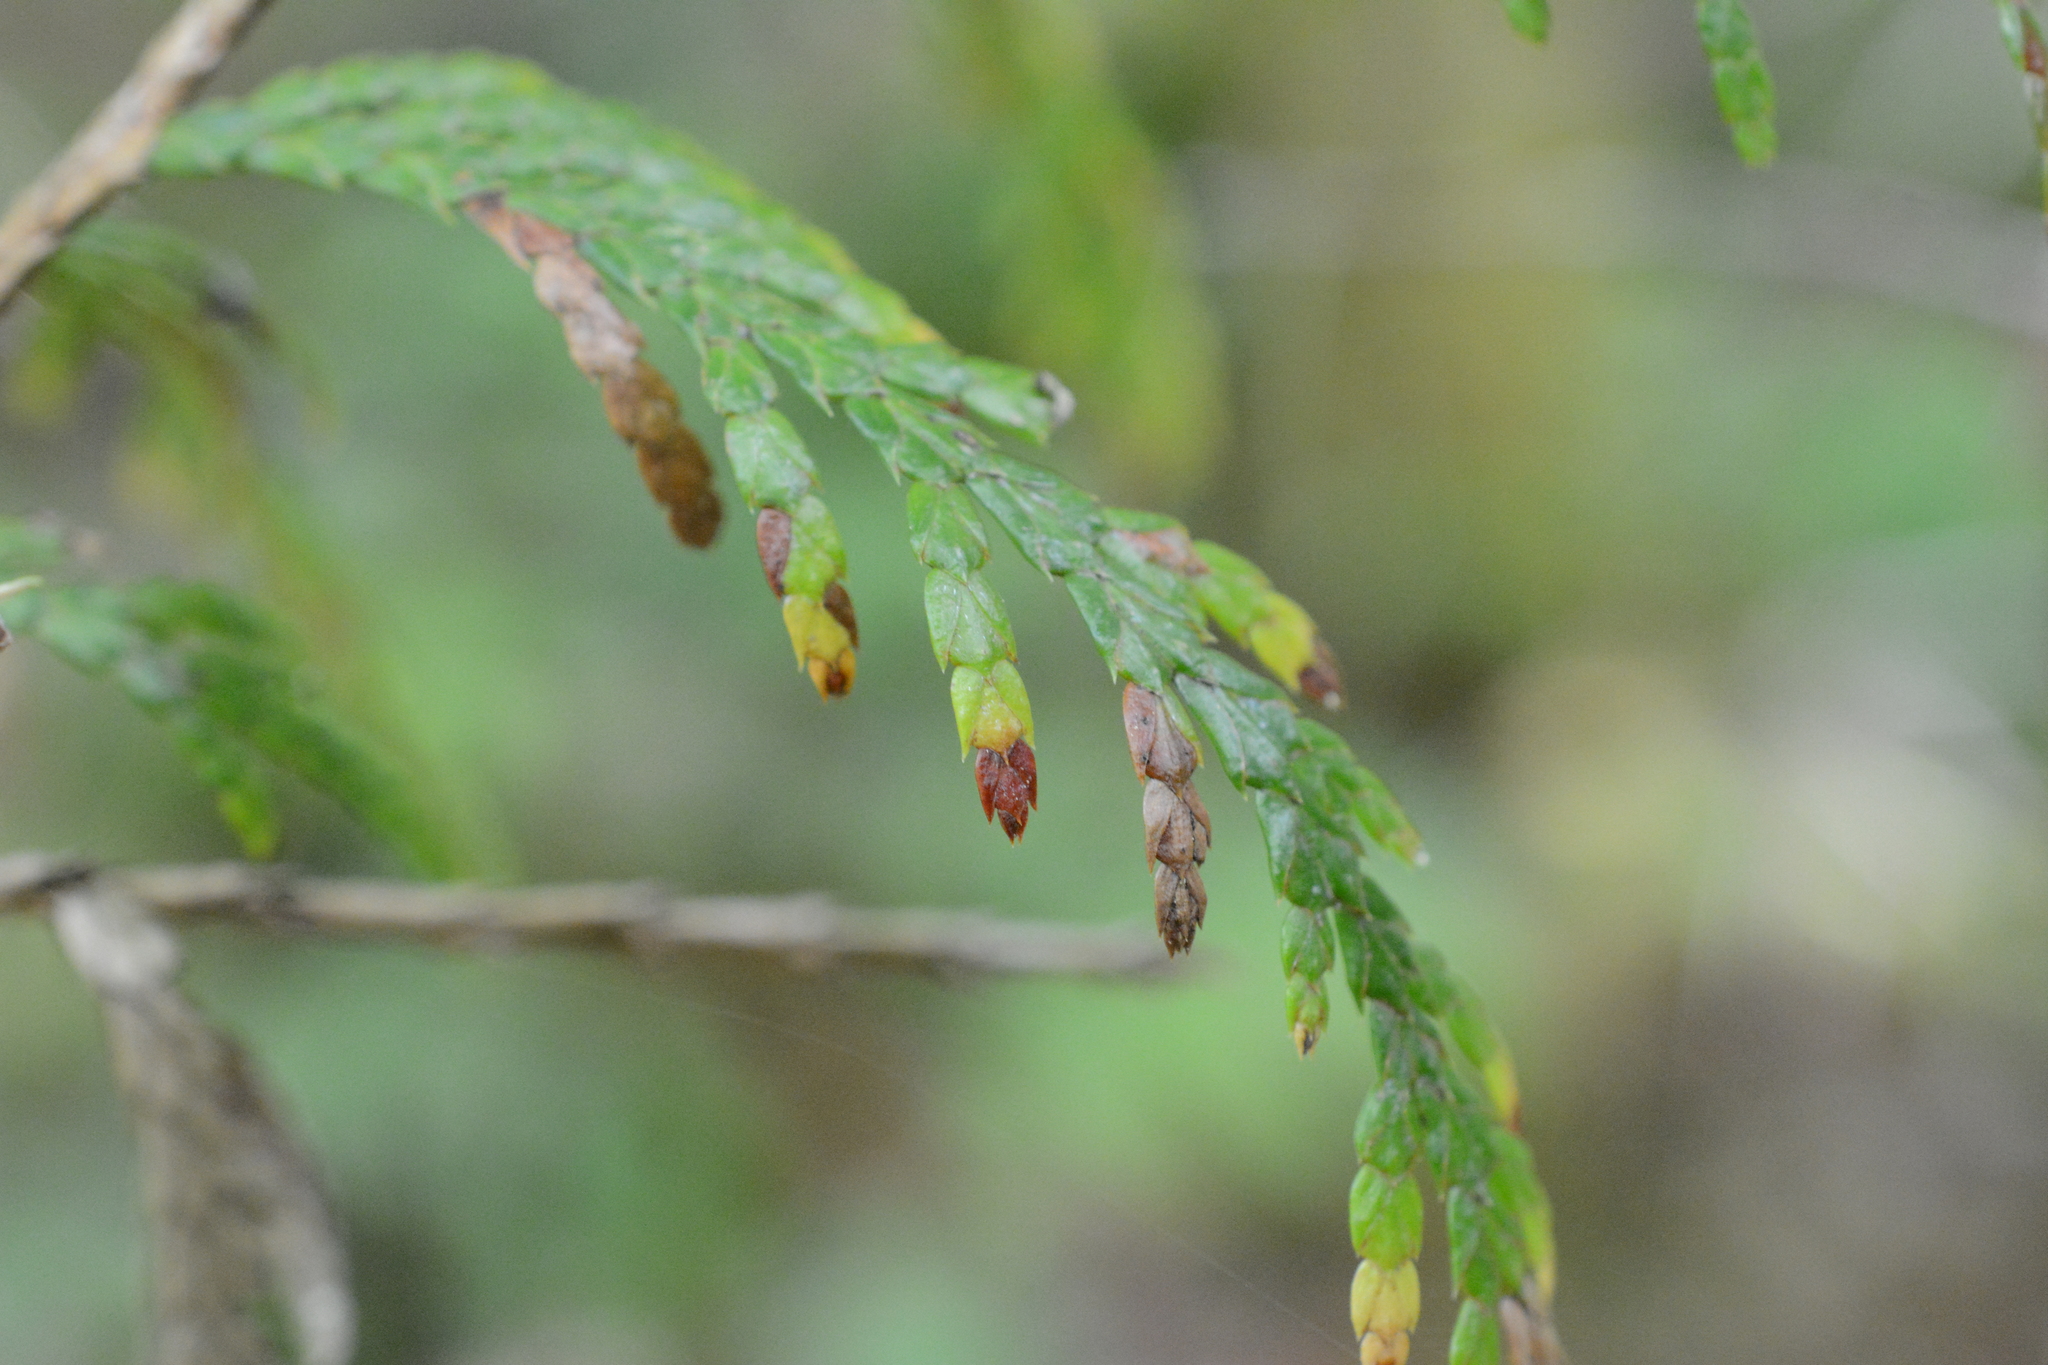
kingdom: Plantae
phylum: Tracheophyta
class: Pinopsida
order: Pinales
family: Cupressaceae
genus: Thuja
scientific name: Thuja plicata
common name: Western red-cedar
